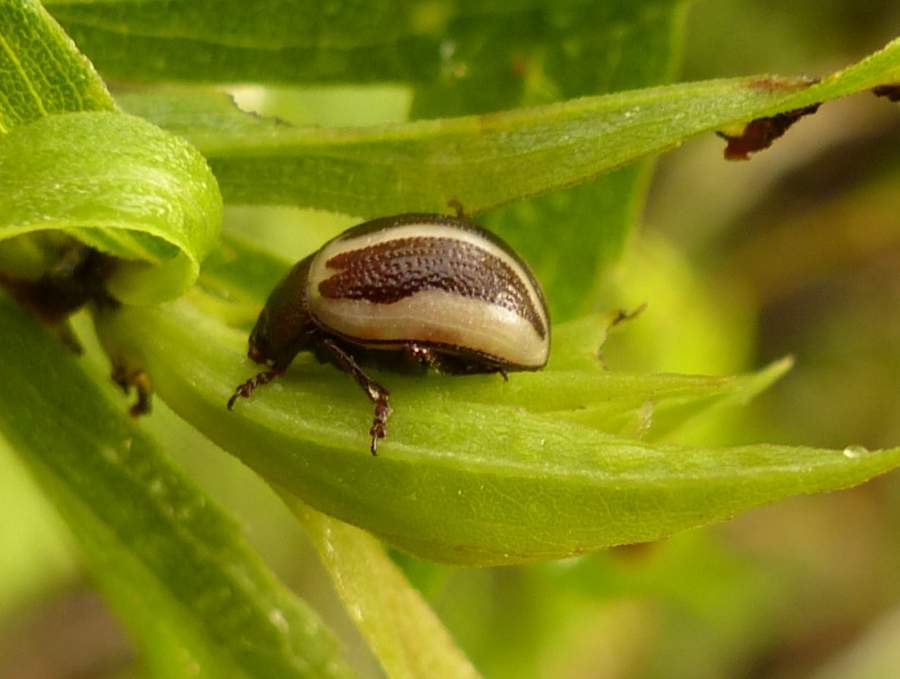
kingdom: Animalia
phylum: Arthropoda
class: Insecta
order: Coleoptera
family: Chrysomelidae
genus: Calligrapha
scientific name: Calligrapha
